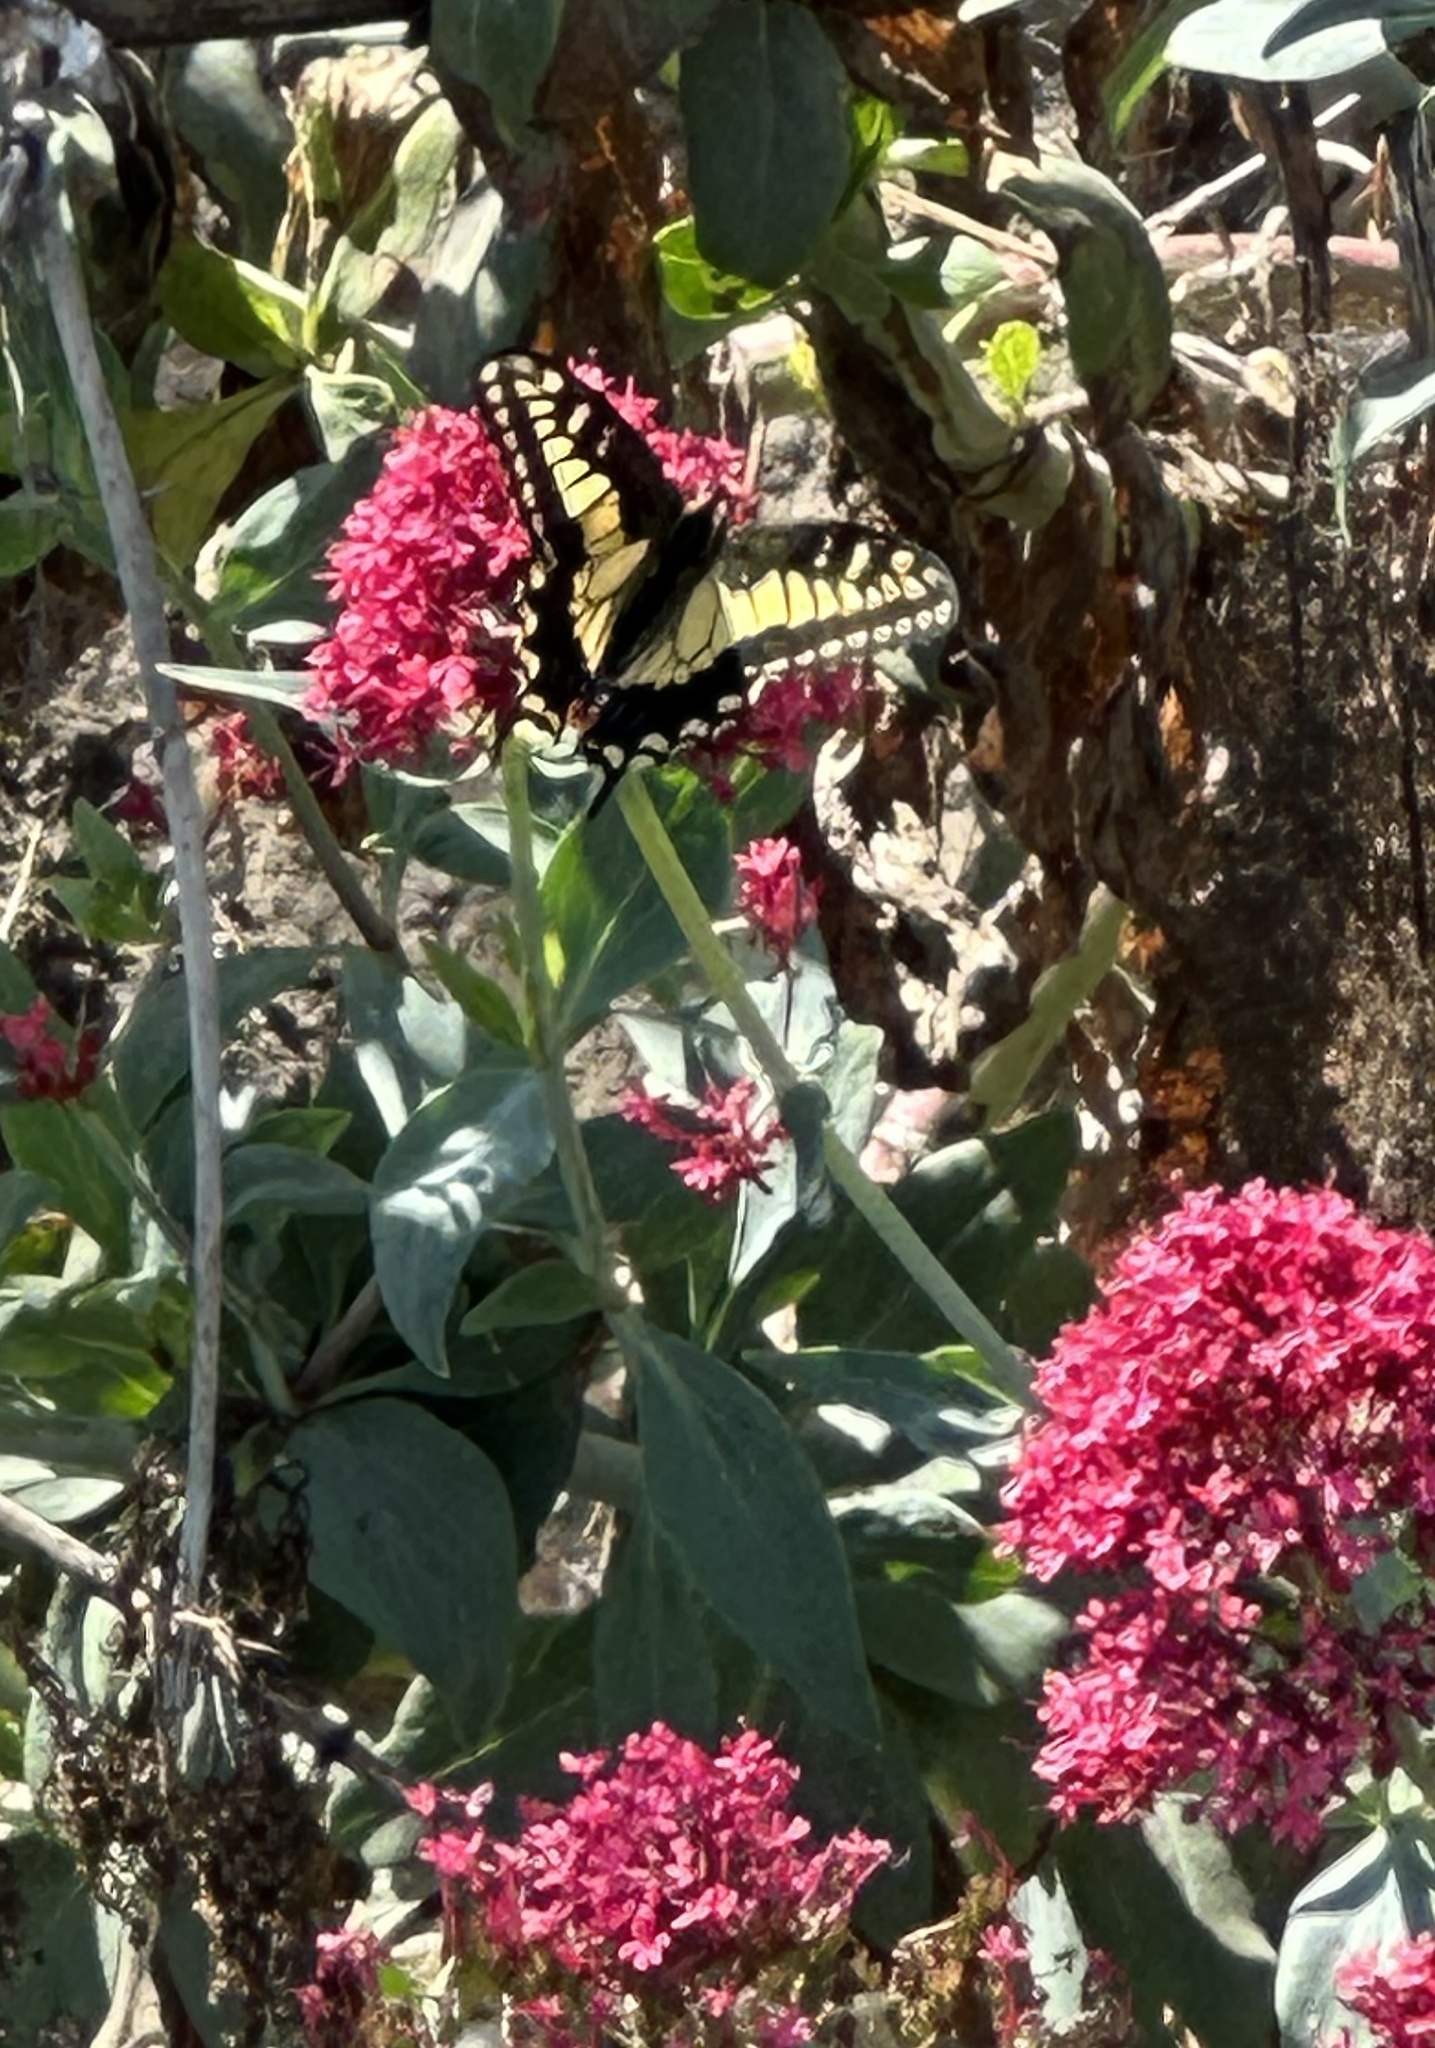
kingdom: Animalia
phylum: Arthropoda
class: Insecta
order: Lepidoptera
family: Papilionidae
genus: Papilio
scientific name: Papilio zelicaon
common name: Anise swallowtail
